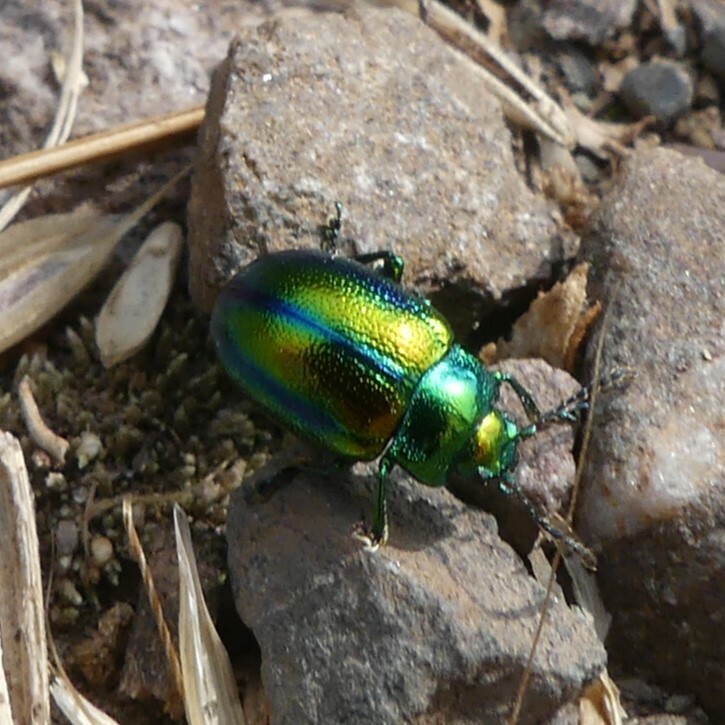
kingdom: Animalia
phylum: Arthropoda
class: Insecta
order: Coleoptera
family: Chrysomelidae
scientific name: Chrysomelidae
